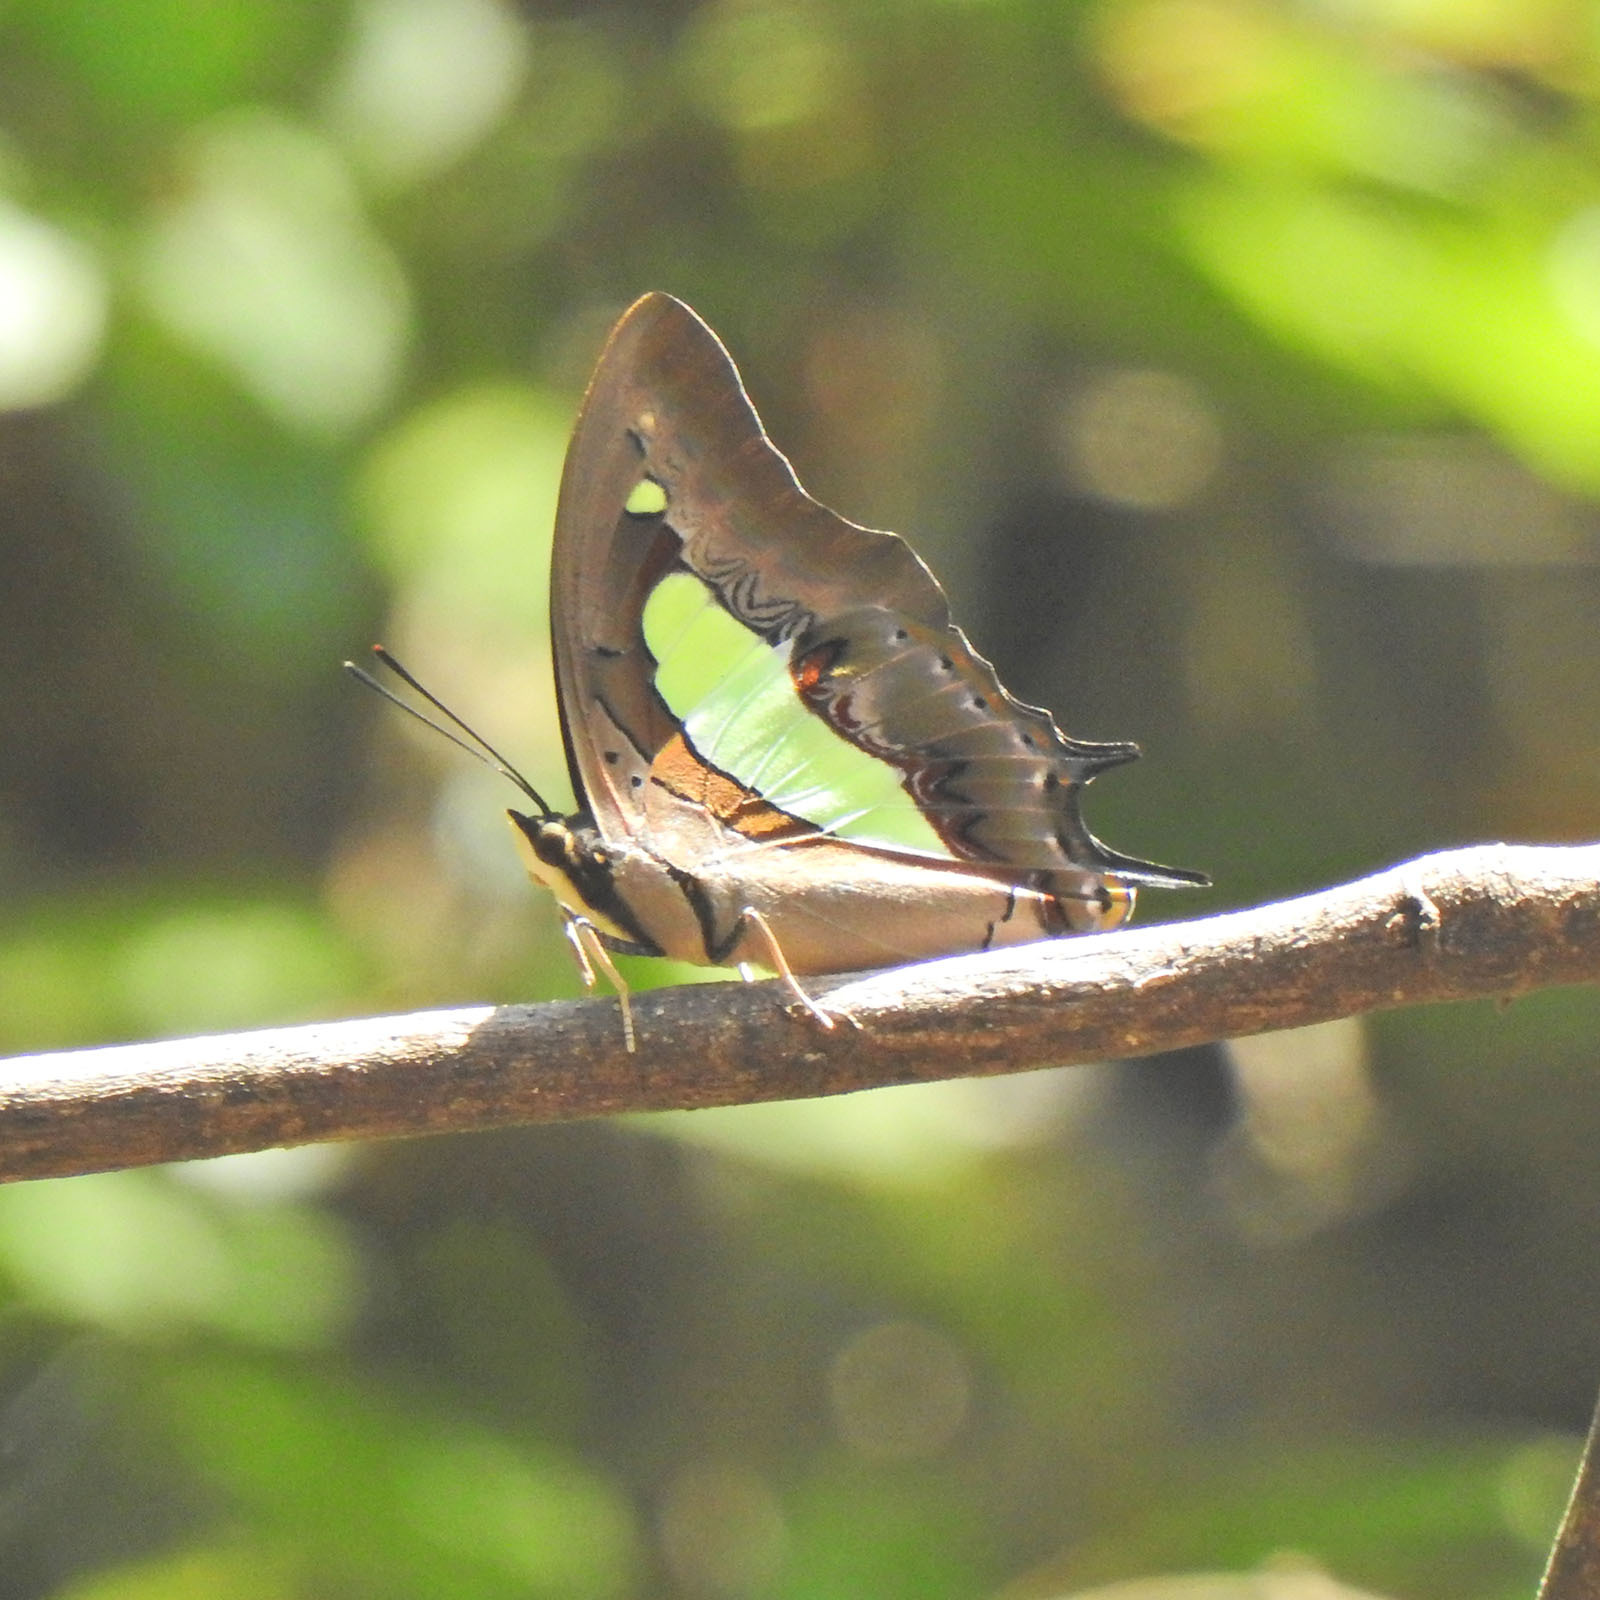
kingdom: Animalia
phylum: Arthropoda
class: Insecta
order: Lepidoptera
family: Nymphalidae
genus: Polyura
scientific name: Polyura
